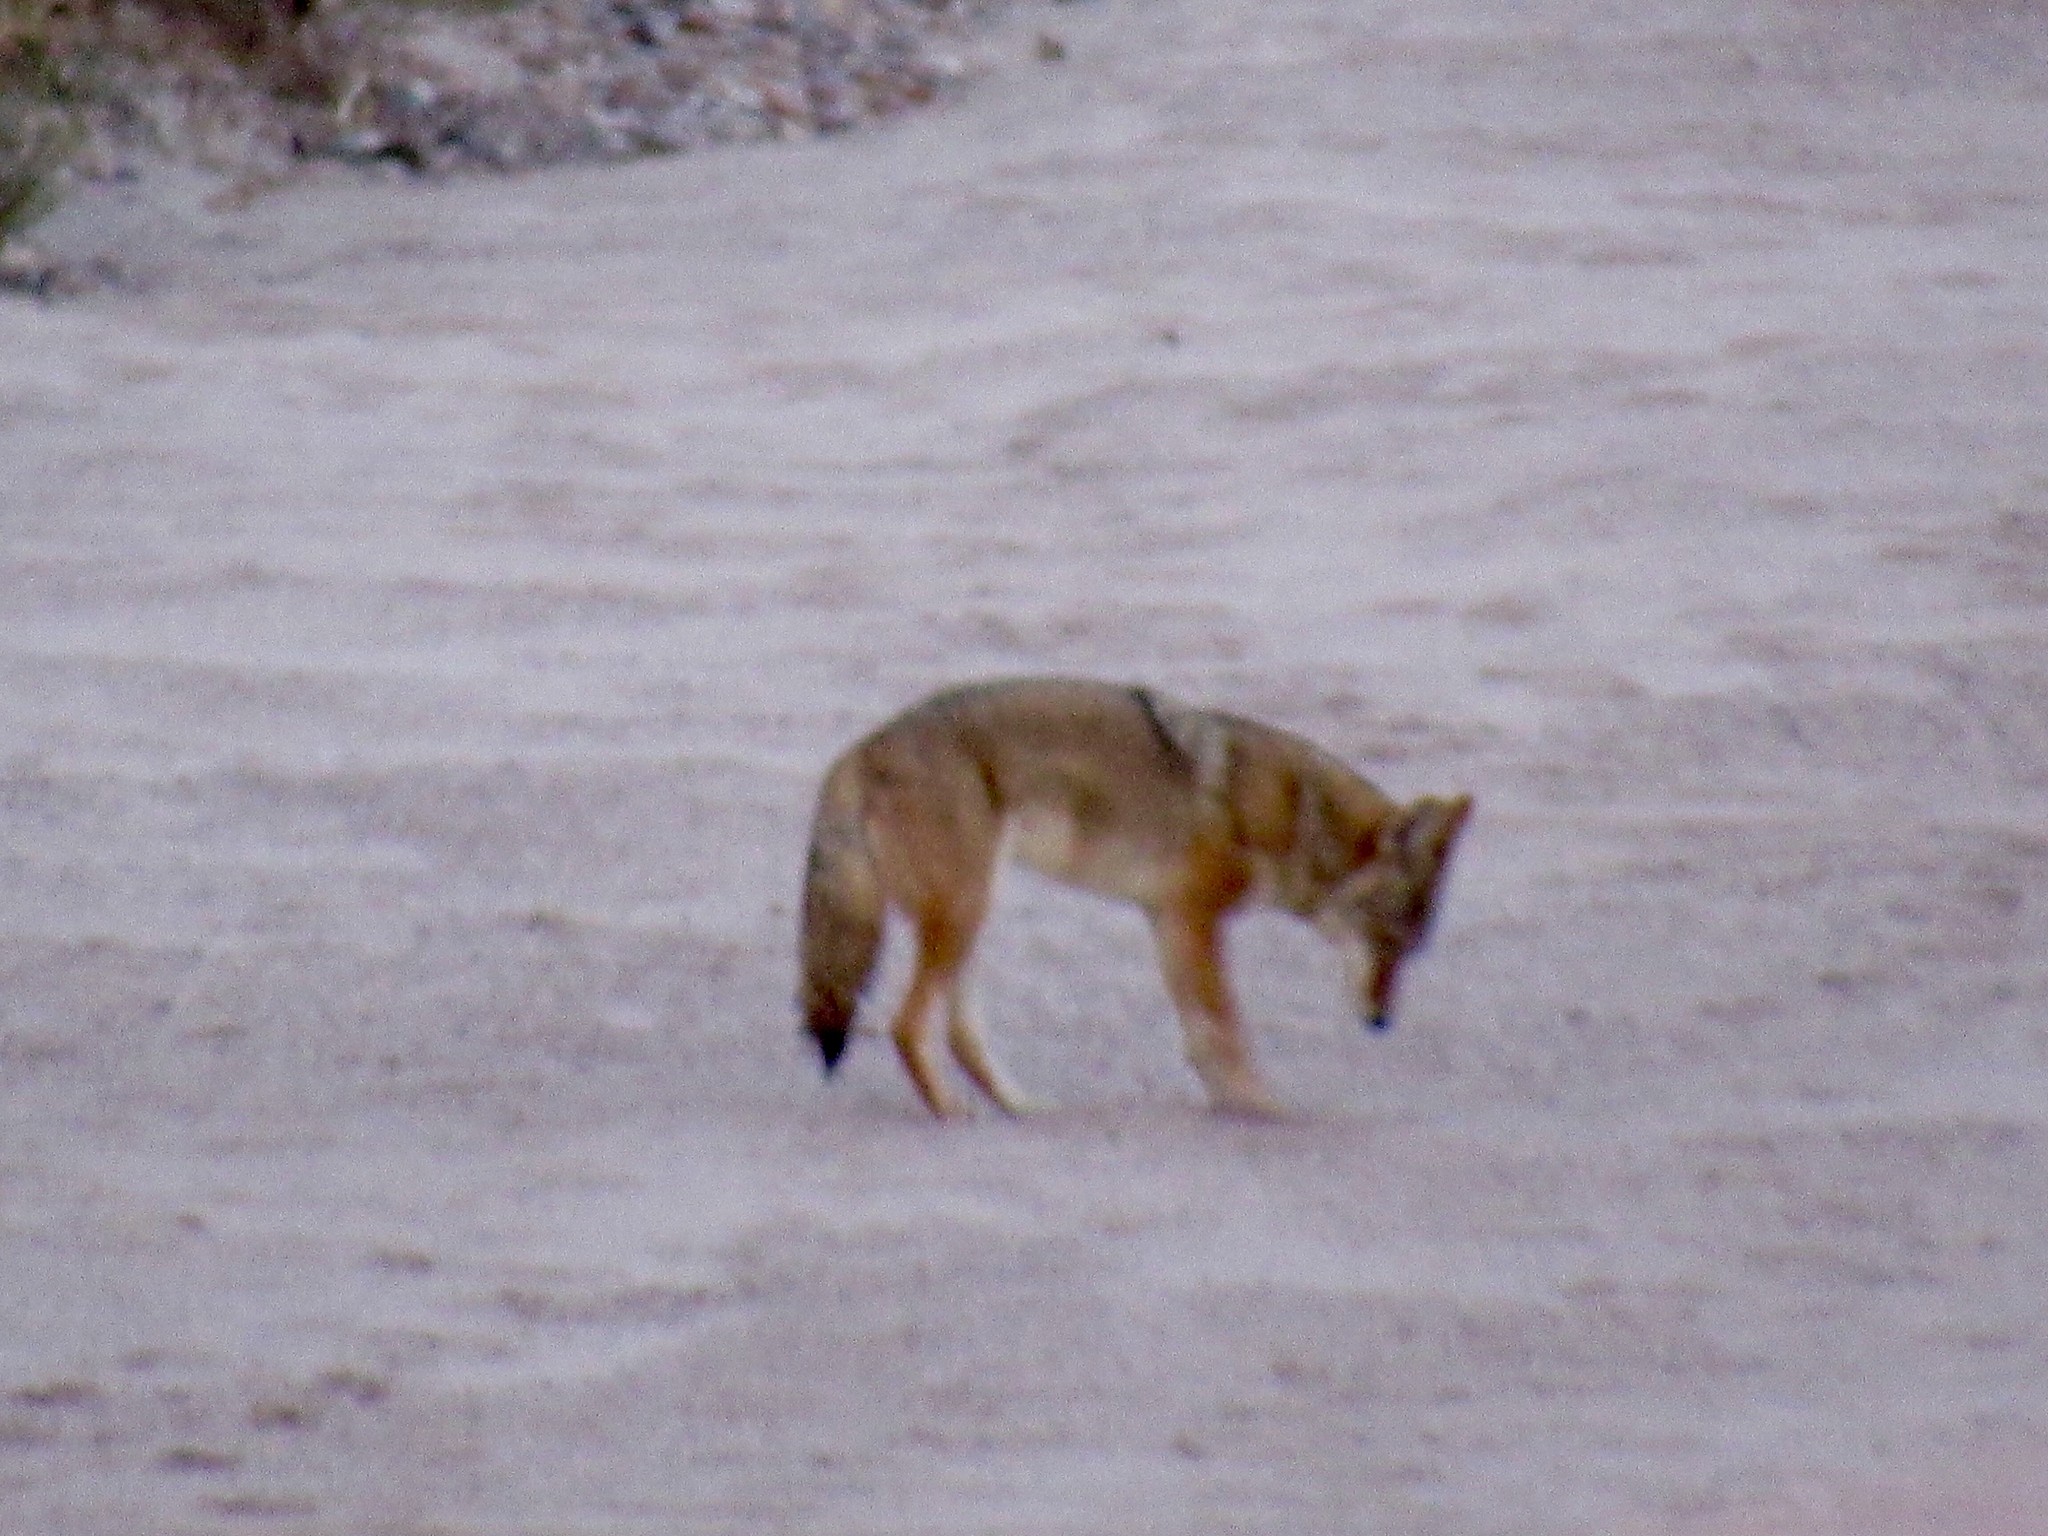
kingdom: Animalia
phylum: Chordata
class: Mammalia
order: Carnivora
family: Canidae
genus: Canis
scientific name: Canis latrans
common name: Coyote
